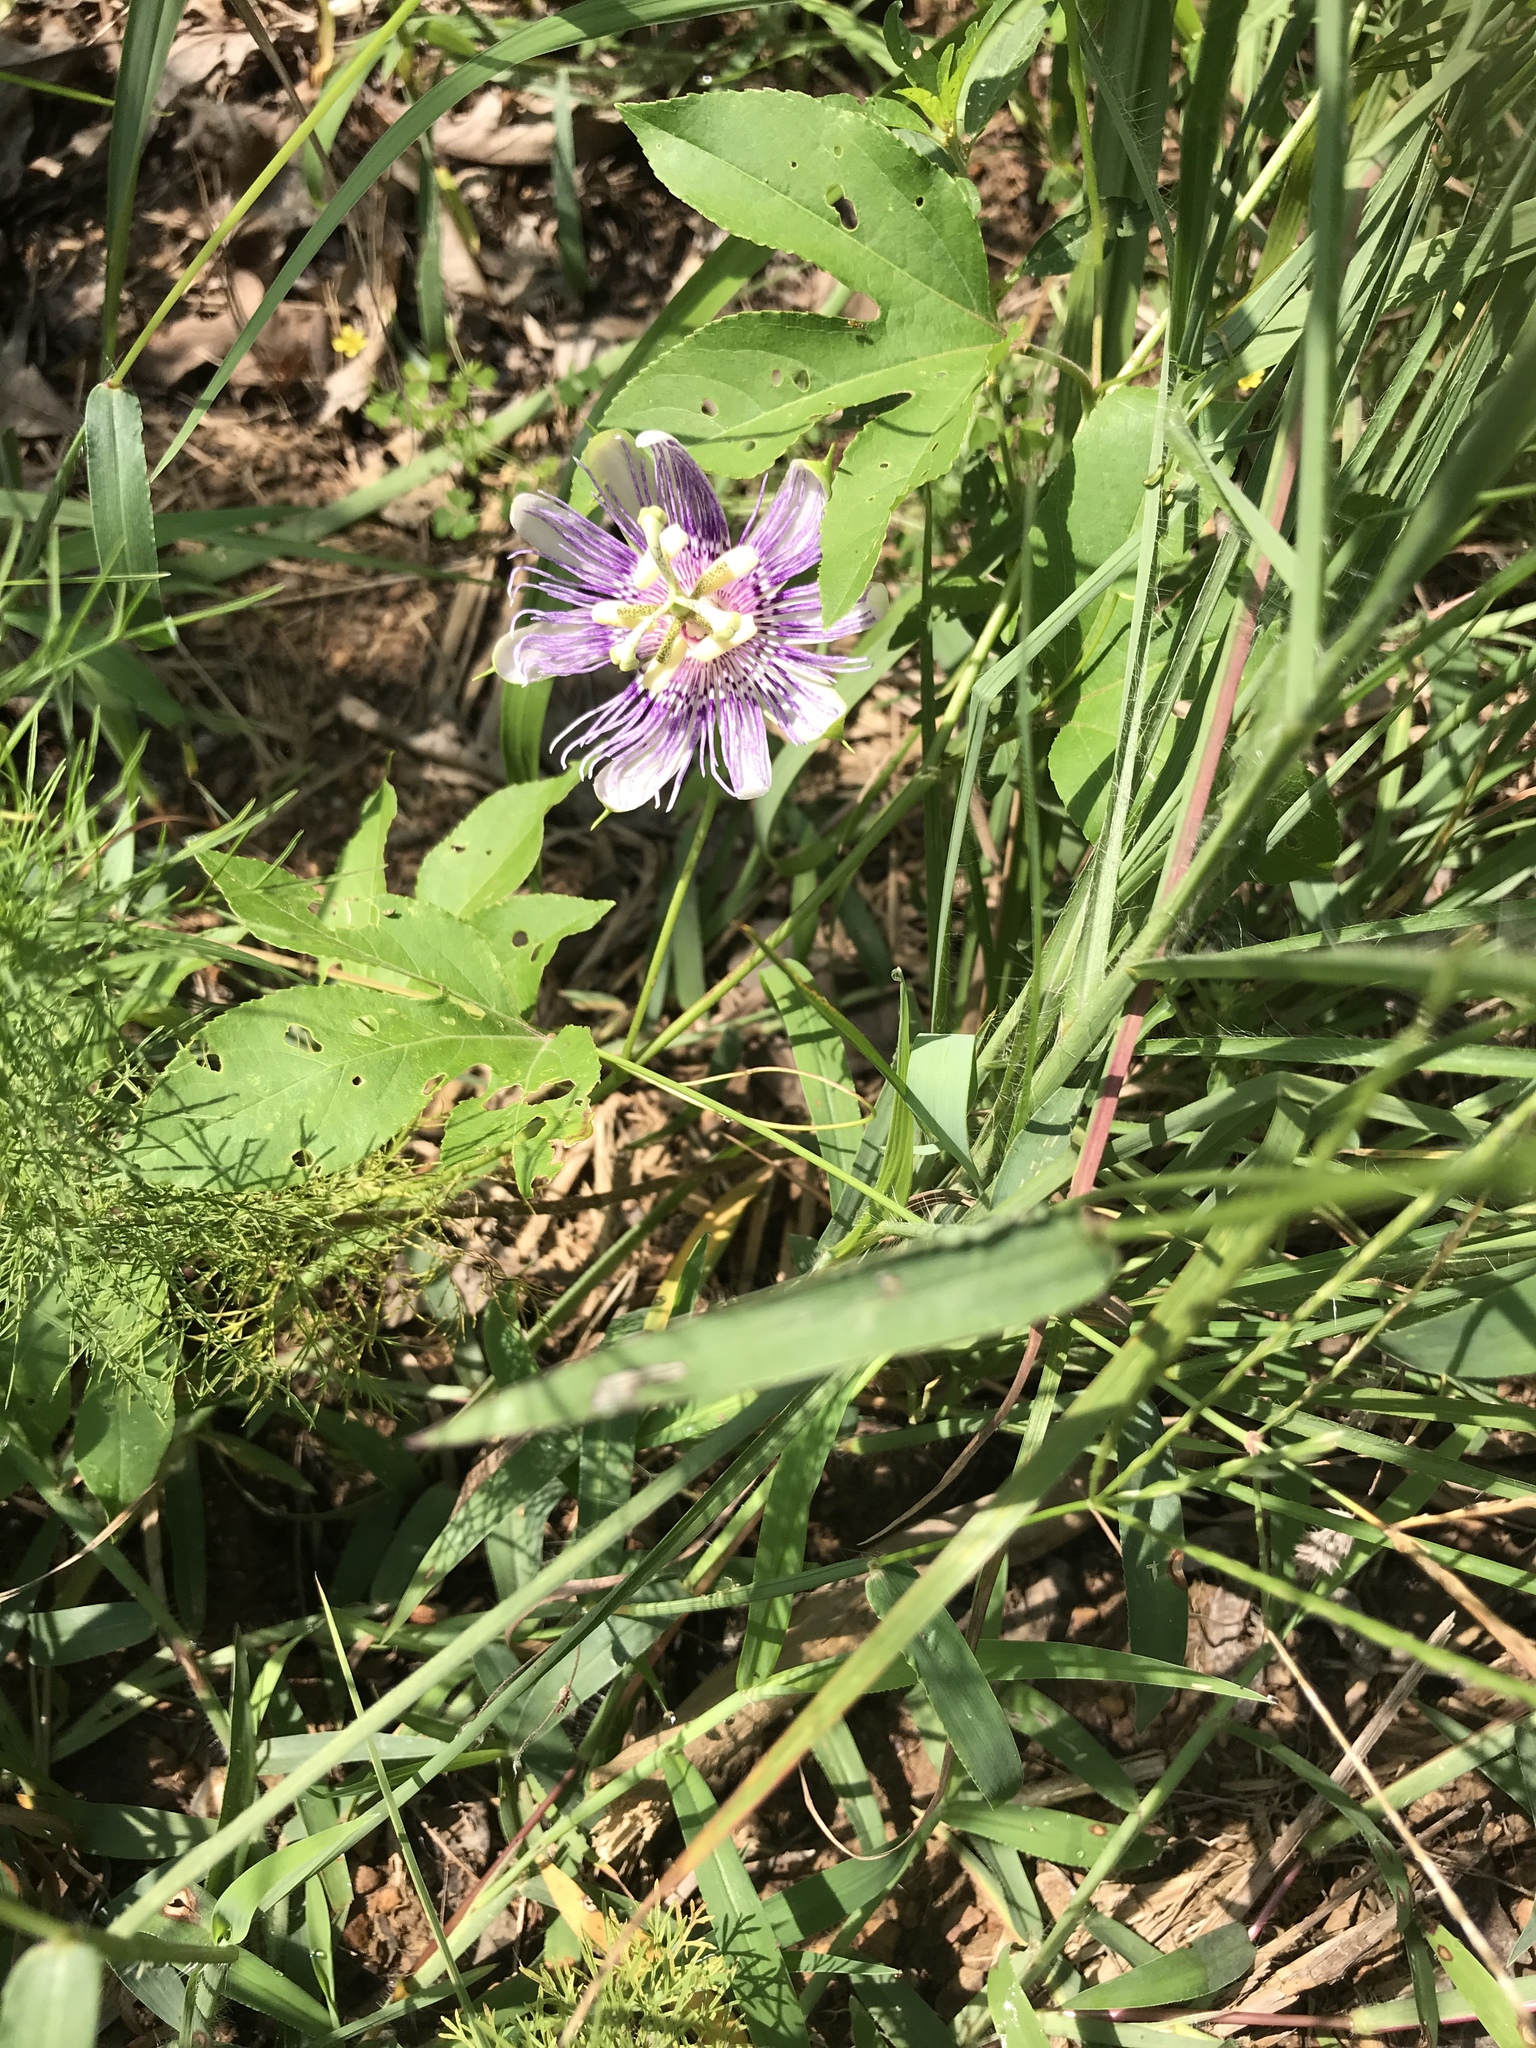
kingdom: Plantae
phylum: Tracheophyta
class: Magnoliopsida
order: Malpighiales
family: Passifloraceae
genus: Passiflora
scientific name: Passiflora incarnata
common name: Apricot-vine
